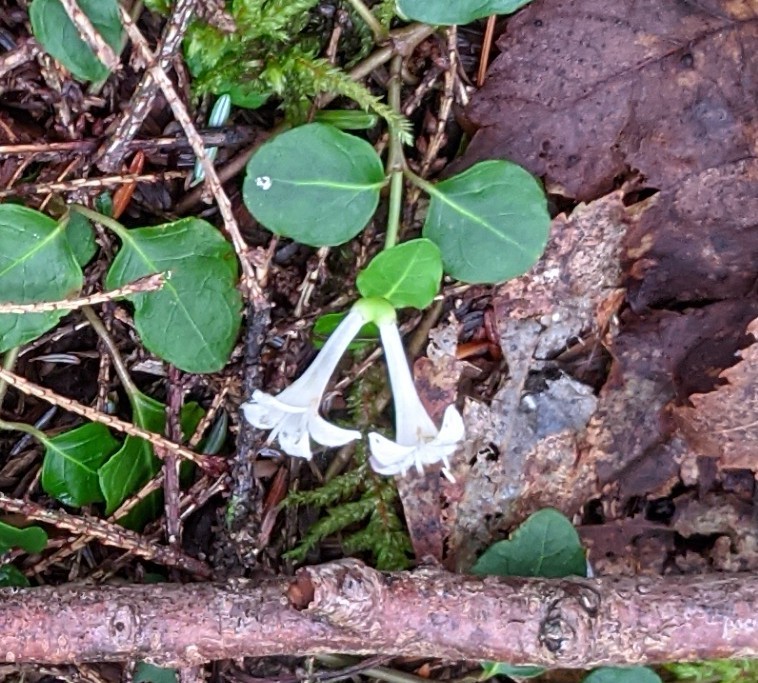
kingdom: Plantae
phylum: Tracheophyta
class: Magnoliopsida
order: Gentianales
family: Rubiaceae
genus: Mitchella
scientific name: Mitchella repens
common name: Partridge-berry
